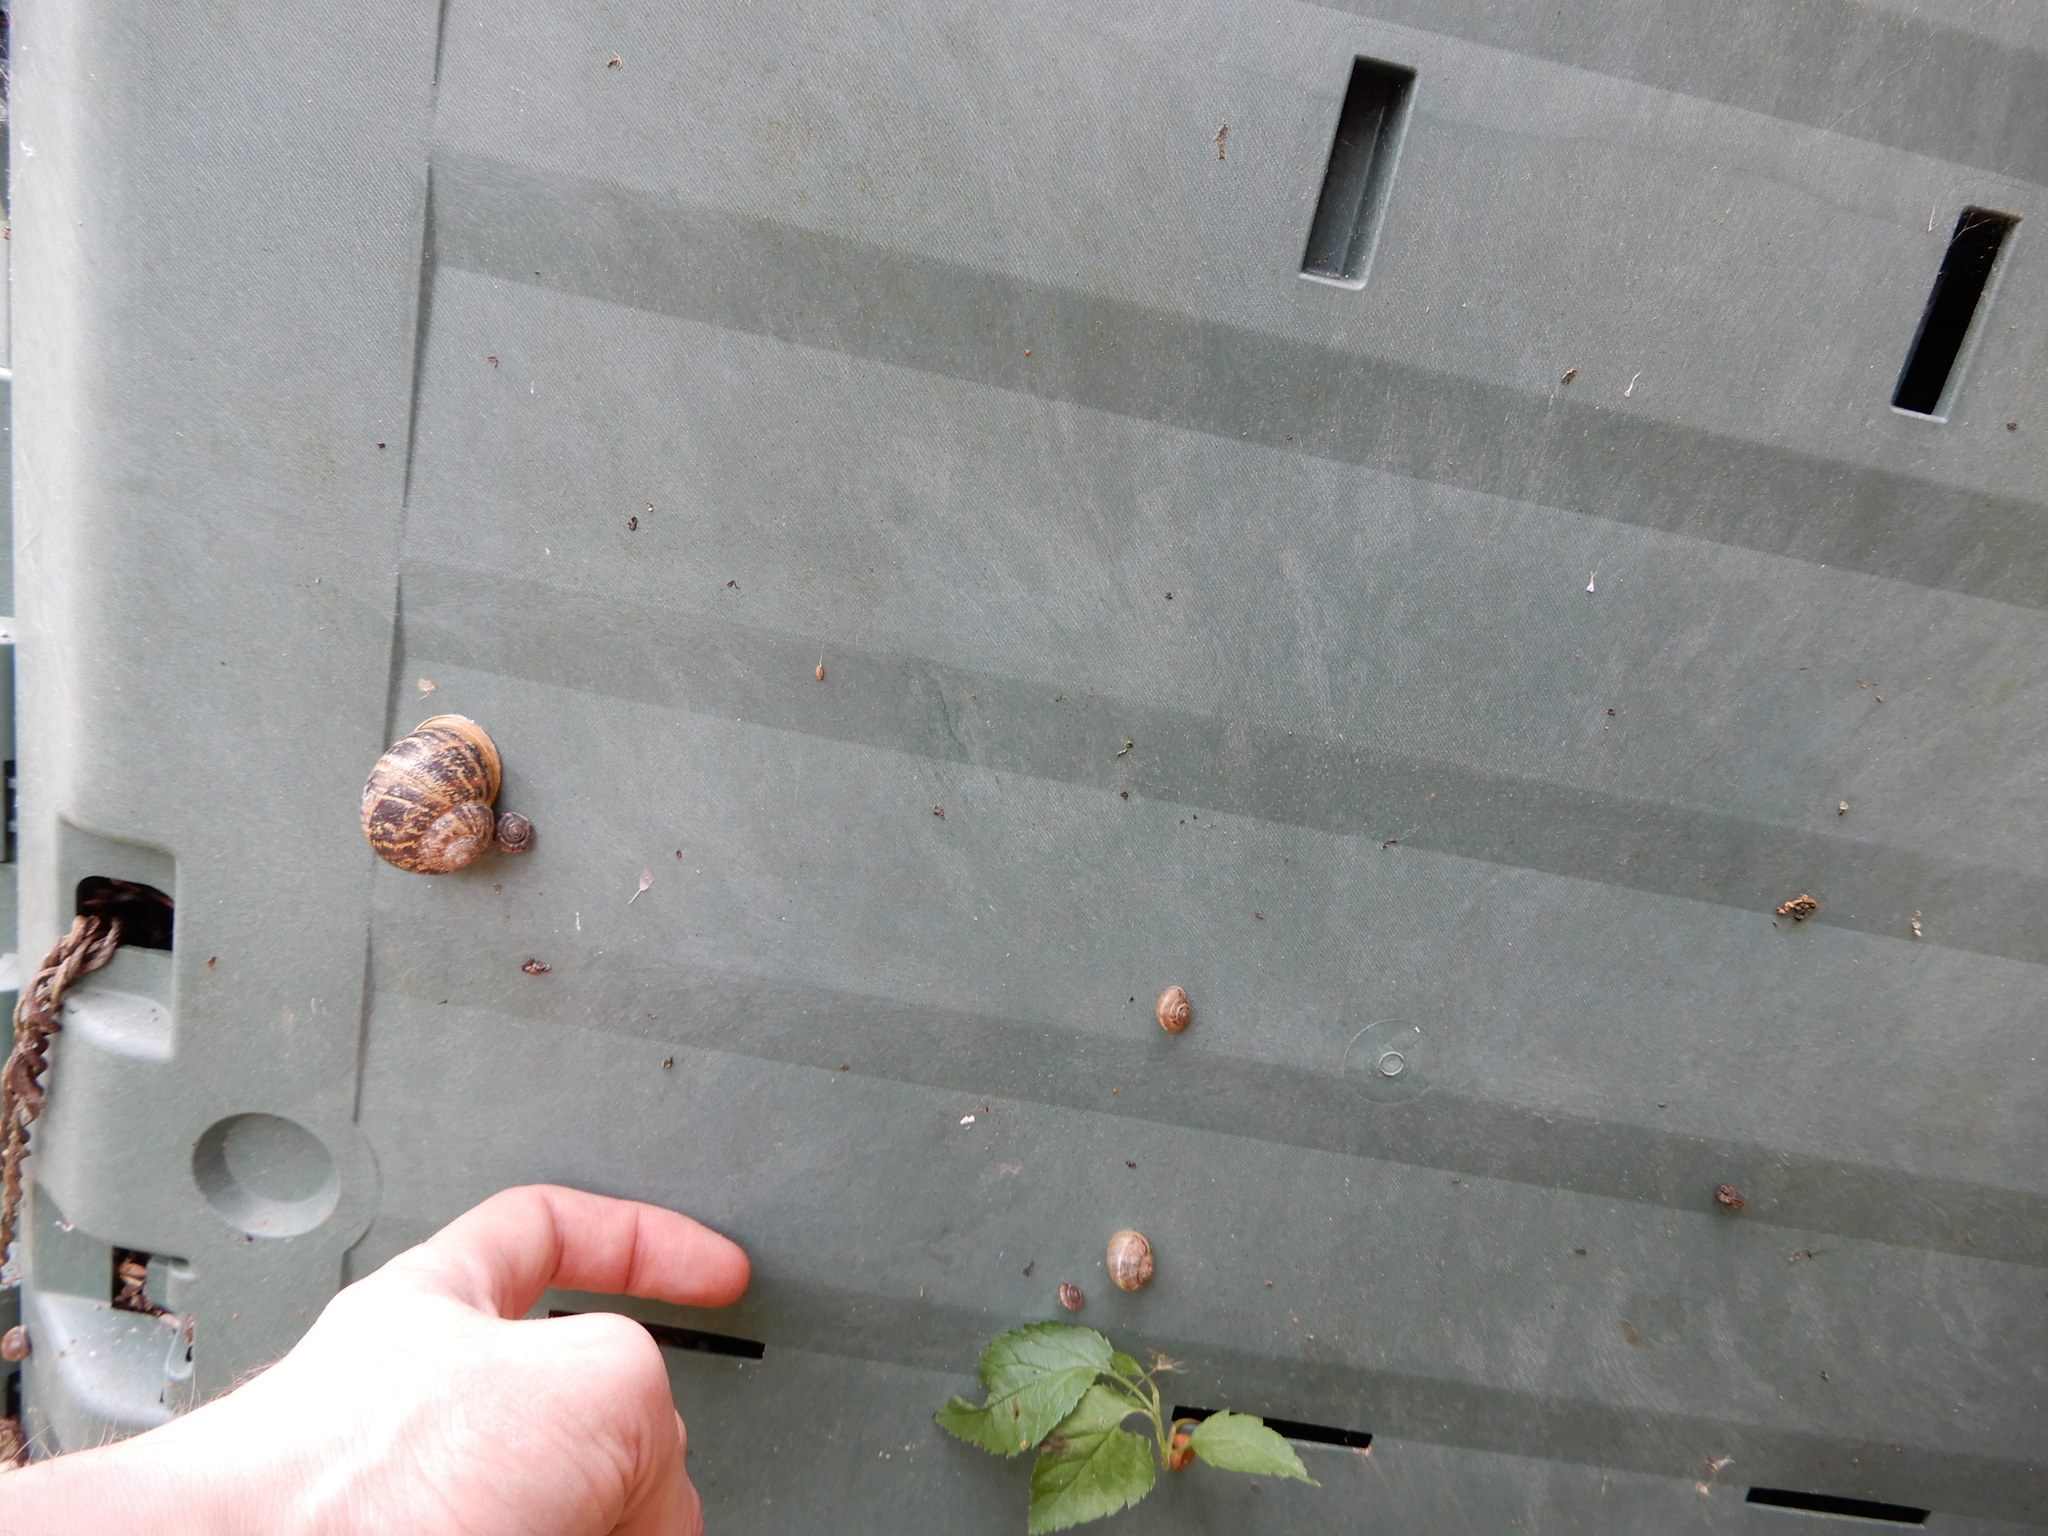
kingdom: Animalia
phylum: Mollusca
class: Gastropoda
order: Stylommatophora
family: Helicidae
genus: Cornu
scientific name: Cornu aspersum
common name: Brown garden snail
